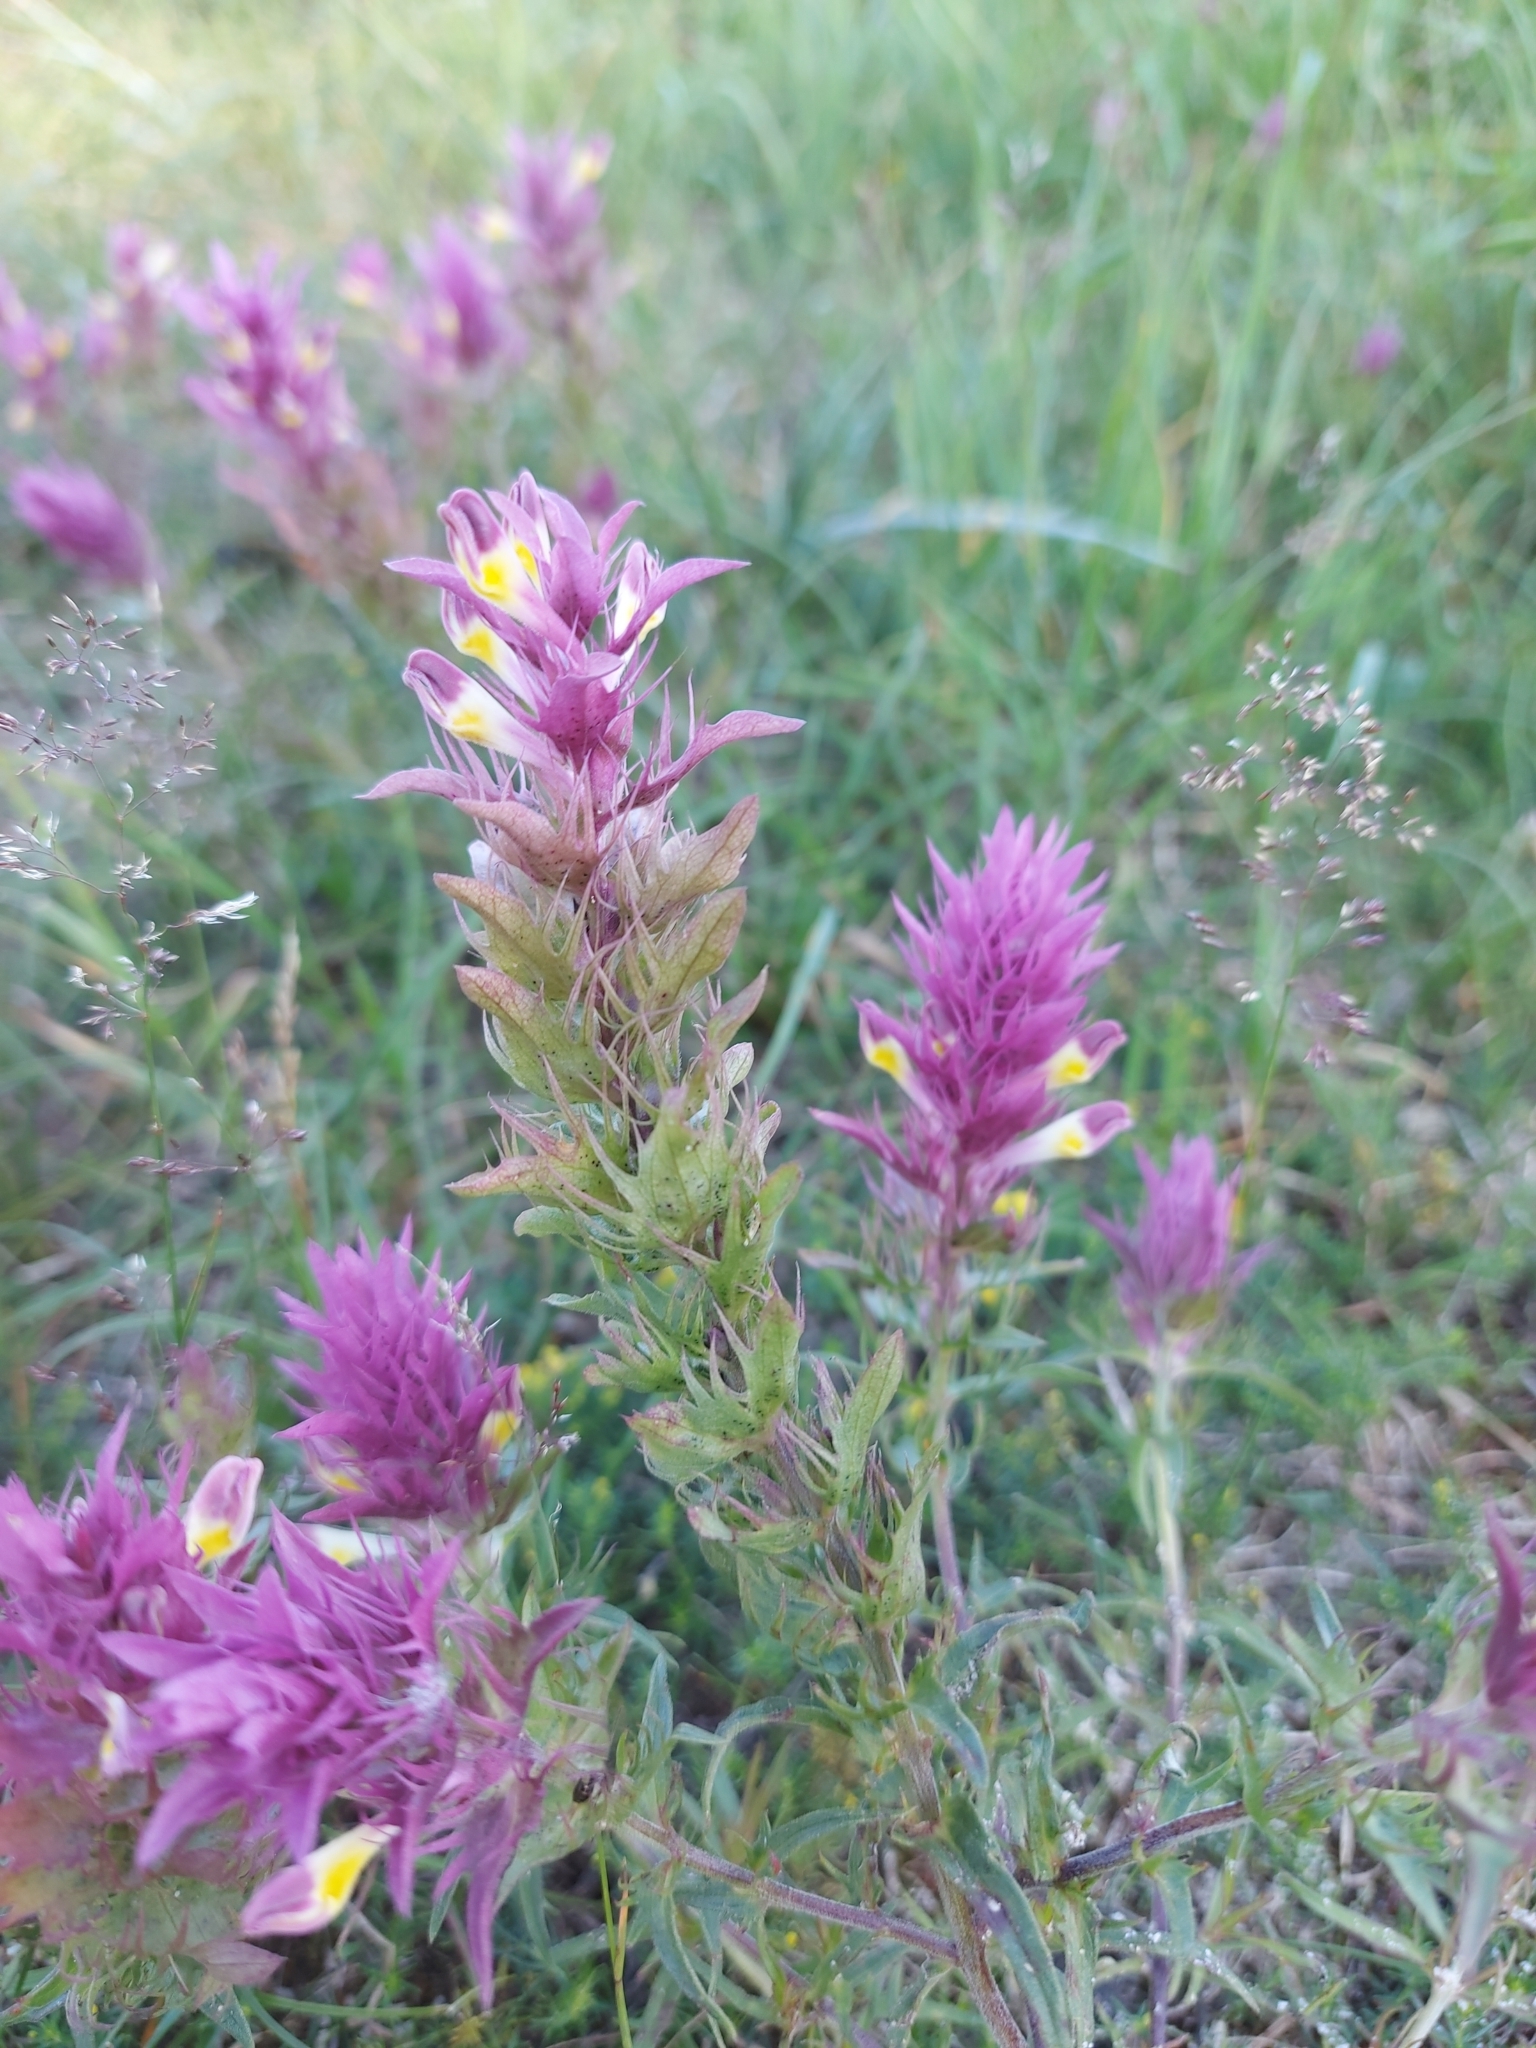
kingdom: Plantae
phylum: Tracheophyta
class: Magnoliopsida
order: Lamiales
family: Orobanchaceae
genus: Melampyrum
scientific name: Melampyrum arvense
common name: Field cow-wheat
